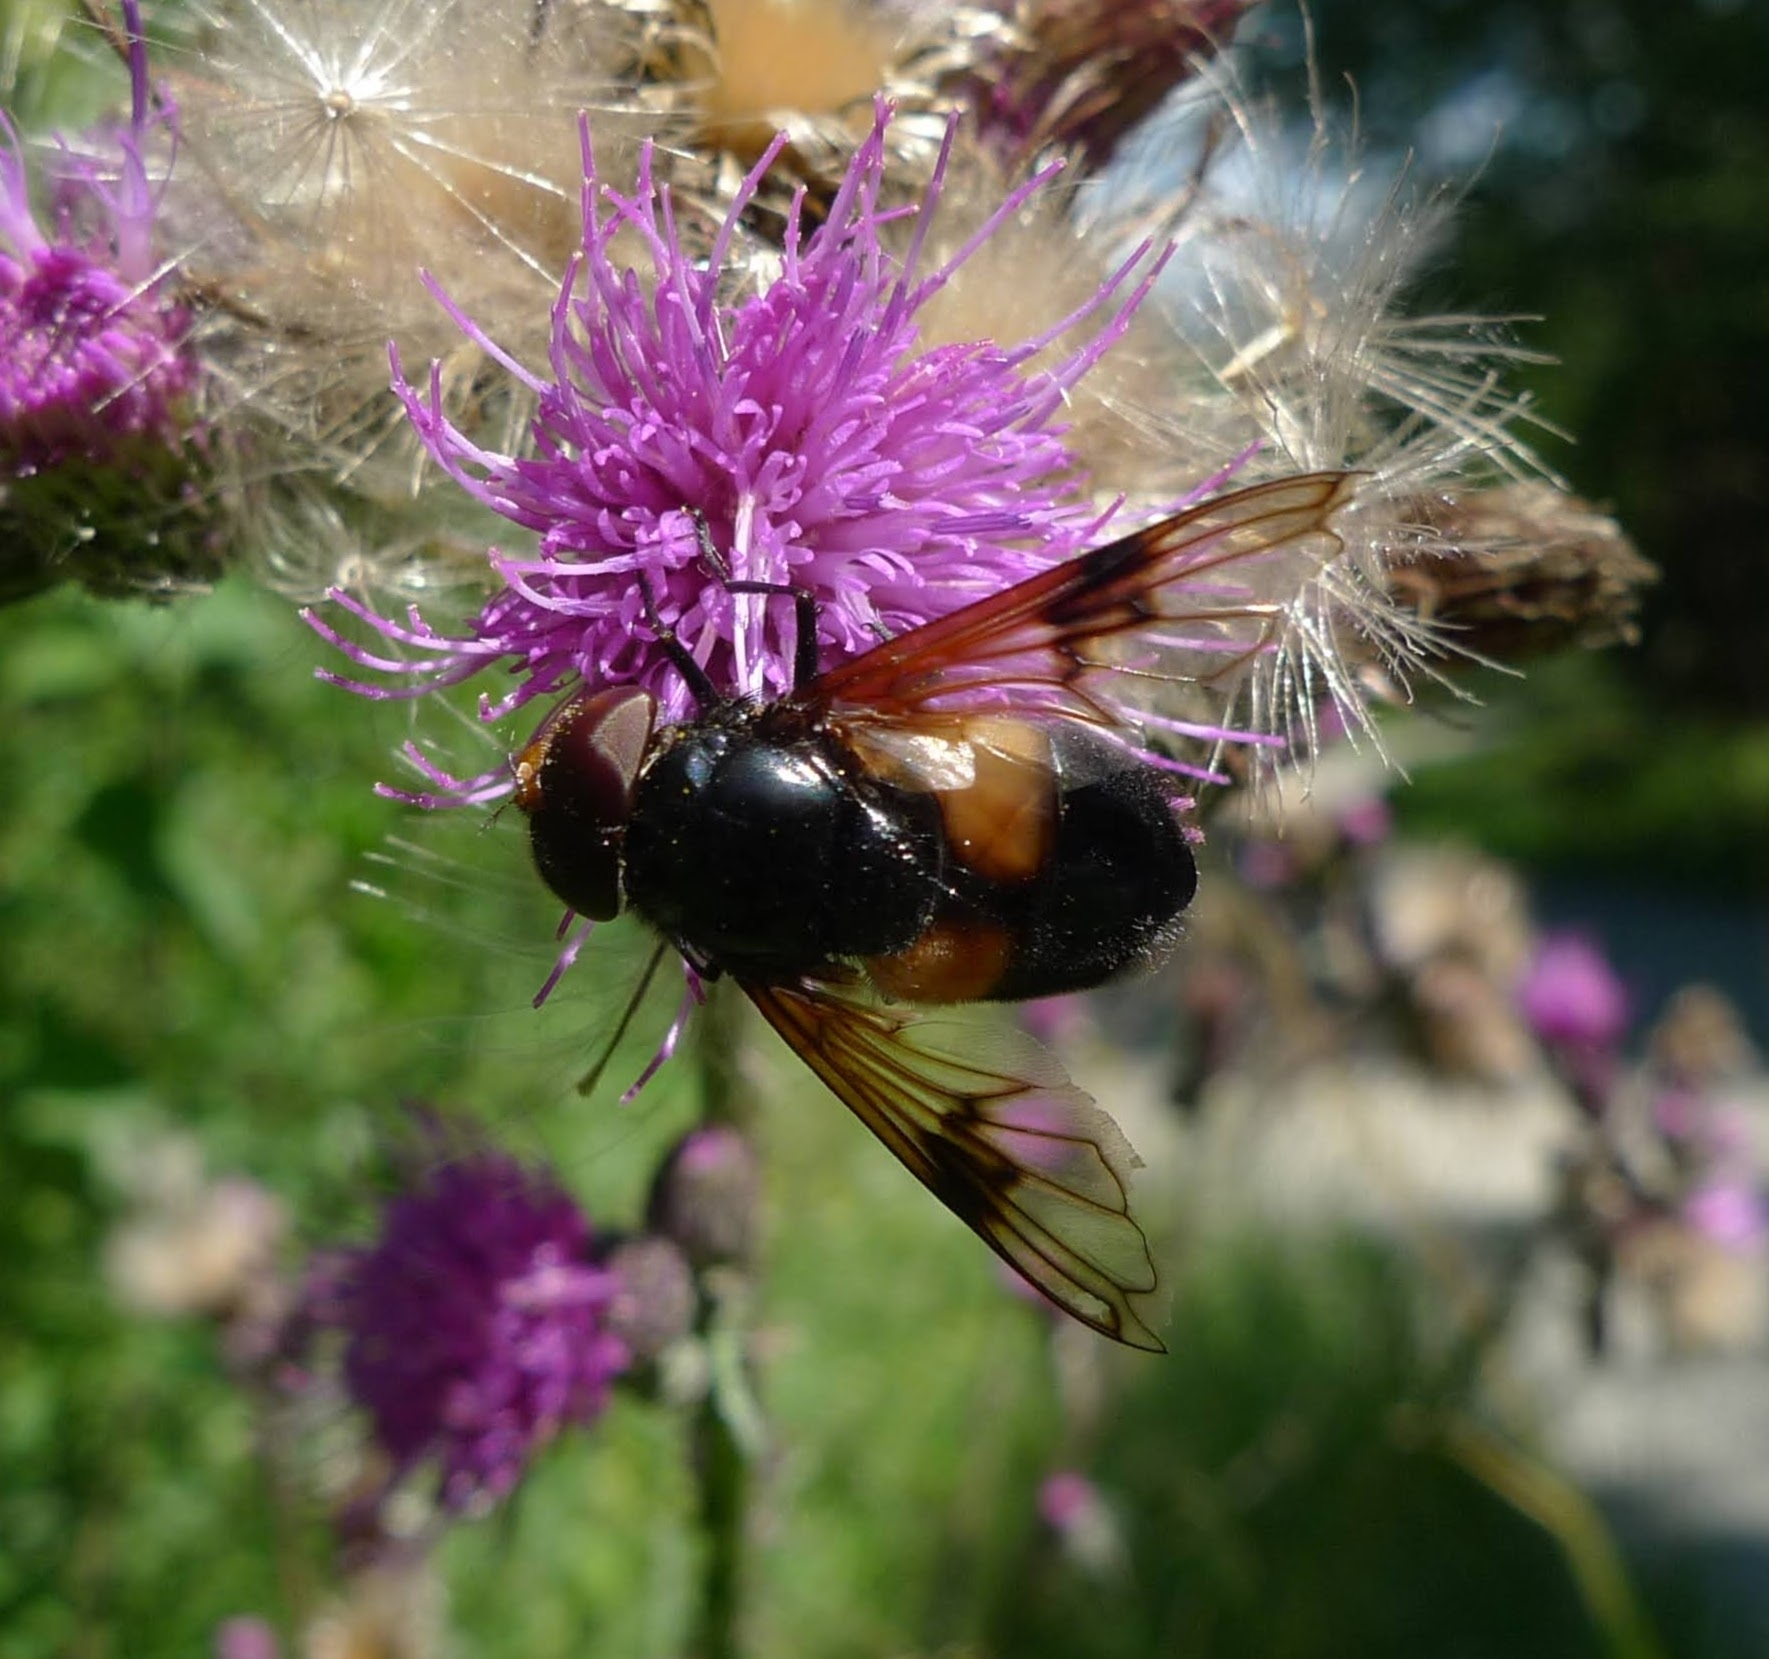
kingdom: Animalia
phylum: Arthropoda
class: Insecta
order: Diptera
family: Syrphidae
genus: Volucella
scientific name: Volucella pellucens
